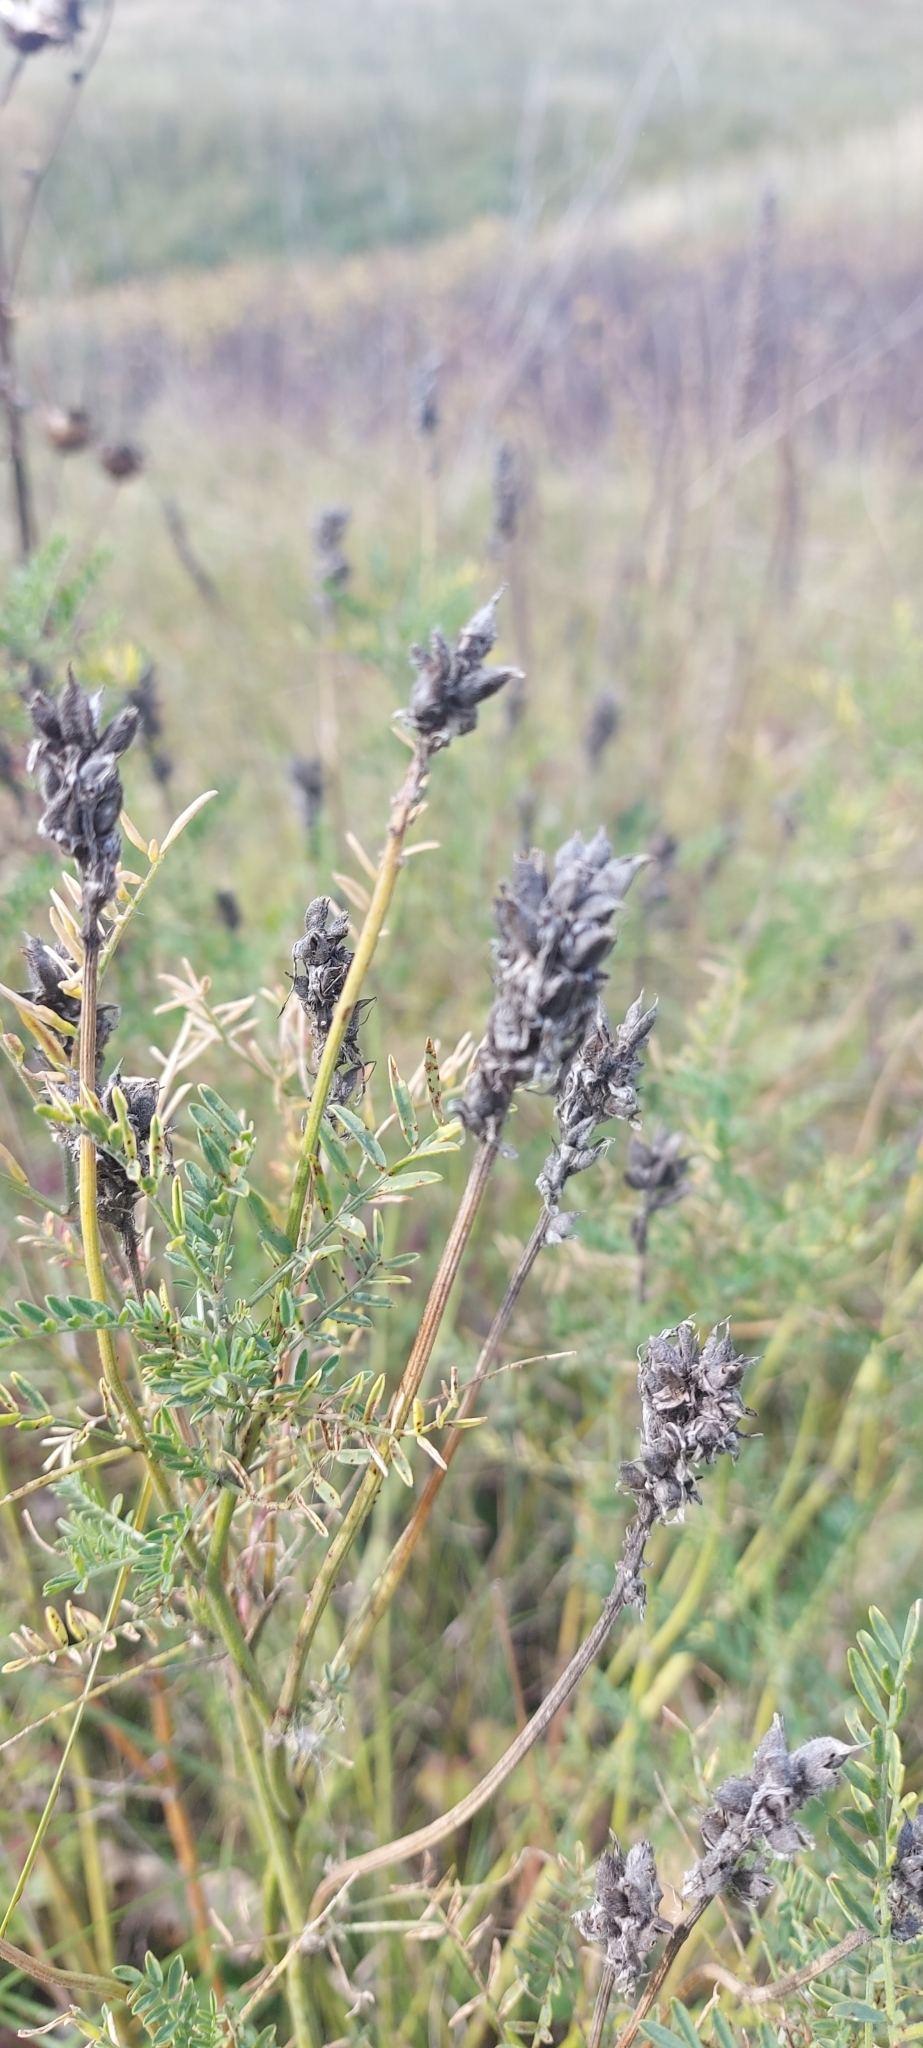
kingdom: Plantae
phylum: Tracheophyta
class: Magnoliopsida
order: Fabales
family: Fabaceae
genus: Astragalus
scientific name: Astragalus onobrychis
